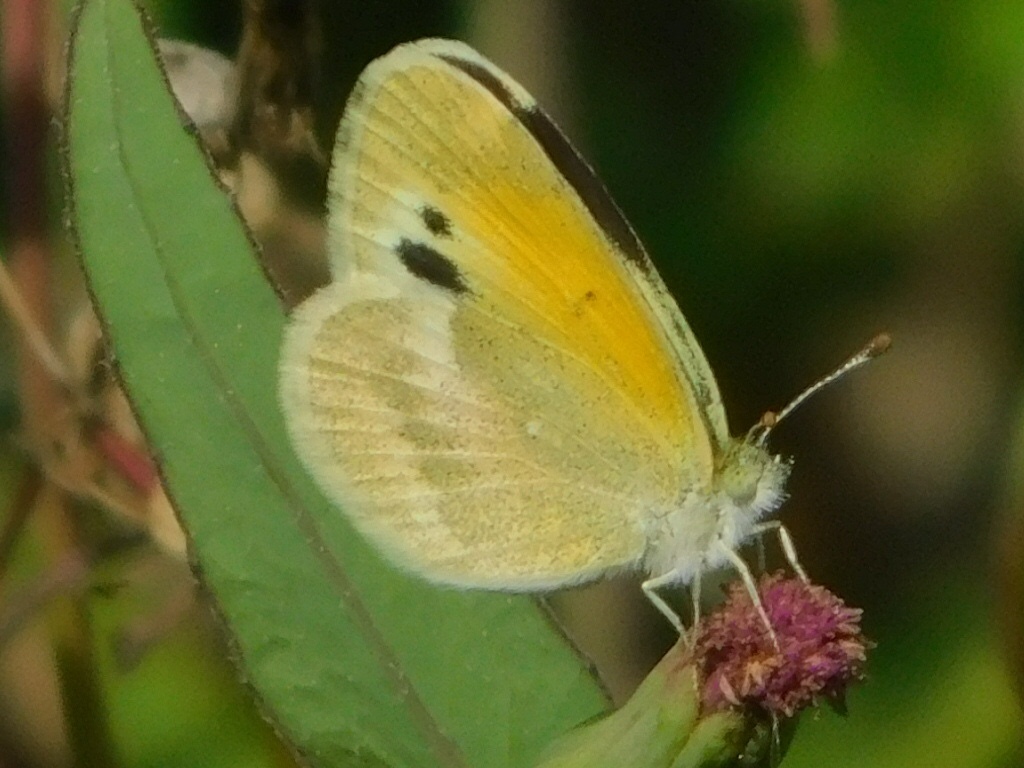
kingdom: Animalia
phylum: Arthropoda
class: Insecta
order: Lepidoptera
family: Pieridae
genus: Nathalis
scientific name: Nathalis iole
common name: Dainty sulphur
